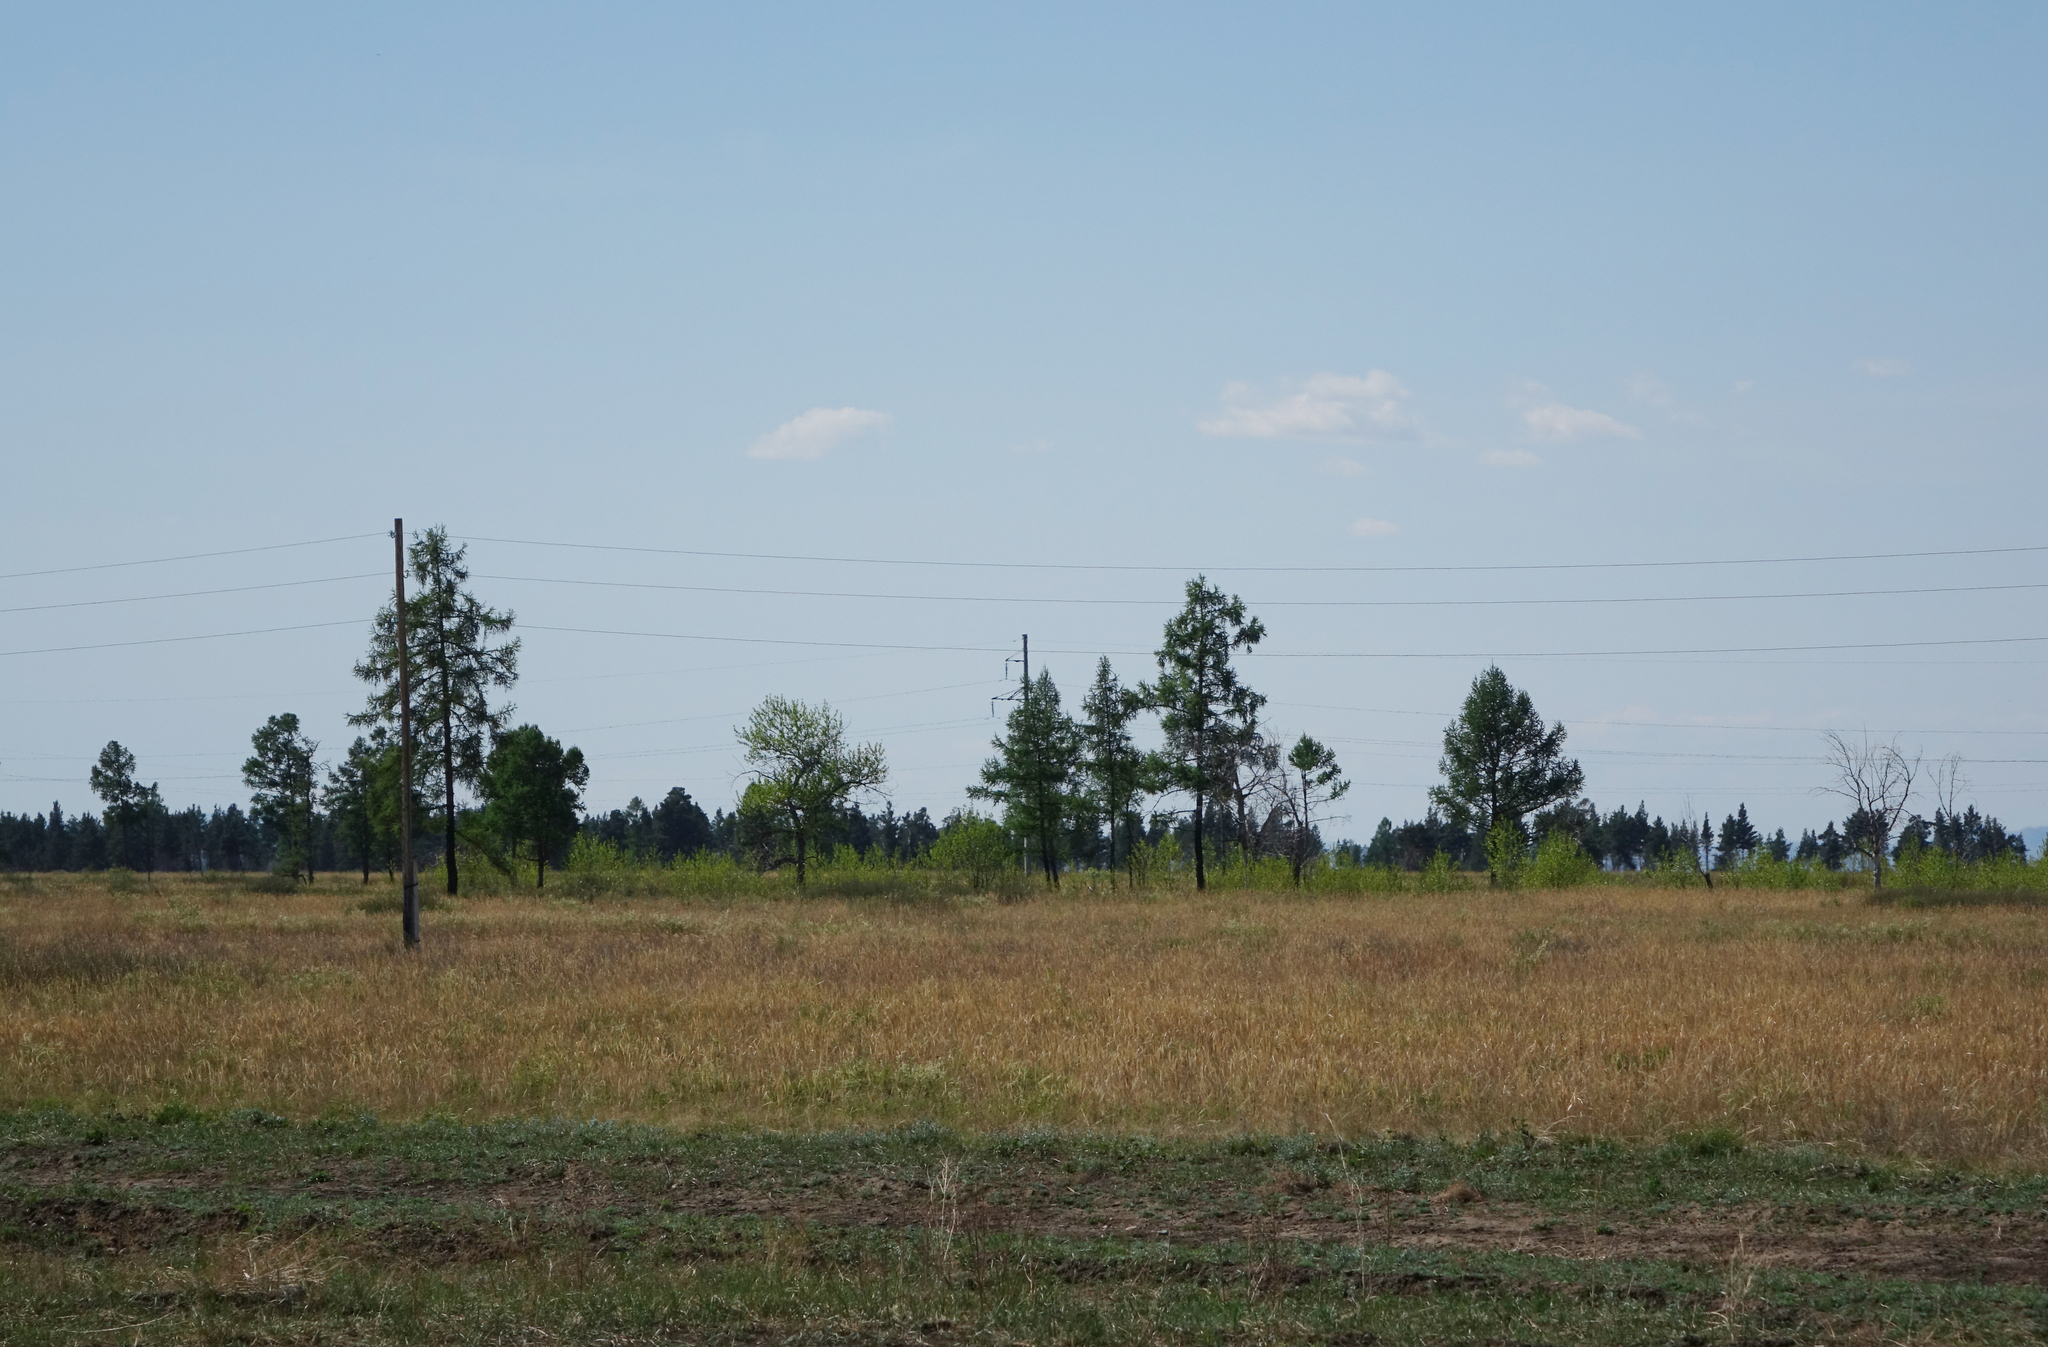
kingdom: Plantae
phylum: Tracheophyta
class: Pinopsida
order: Pinales
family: Pinaceae
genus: Larix
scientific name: Larix sibirica
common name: Siberian larch
